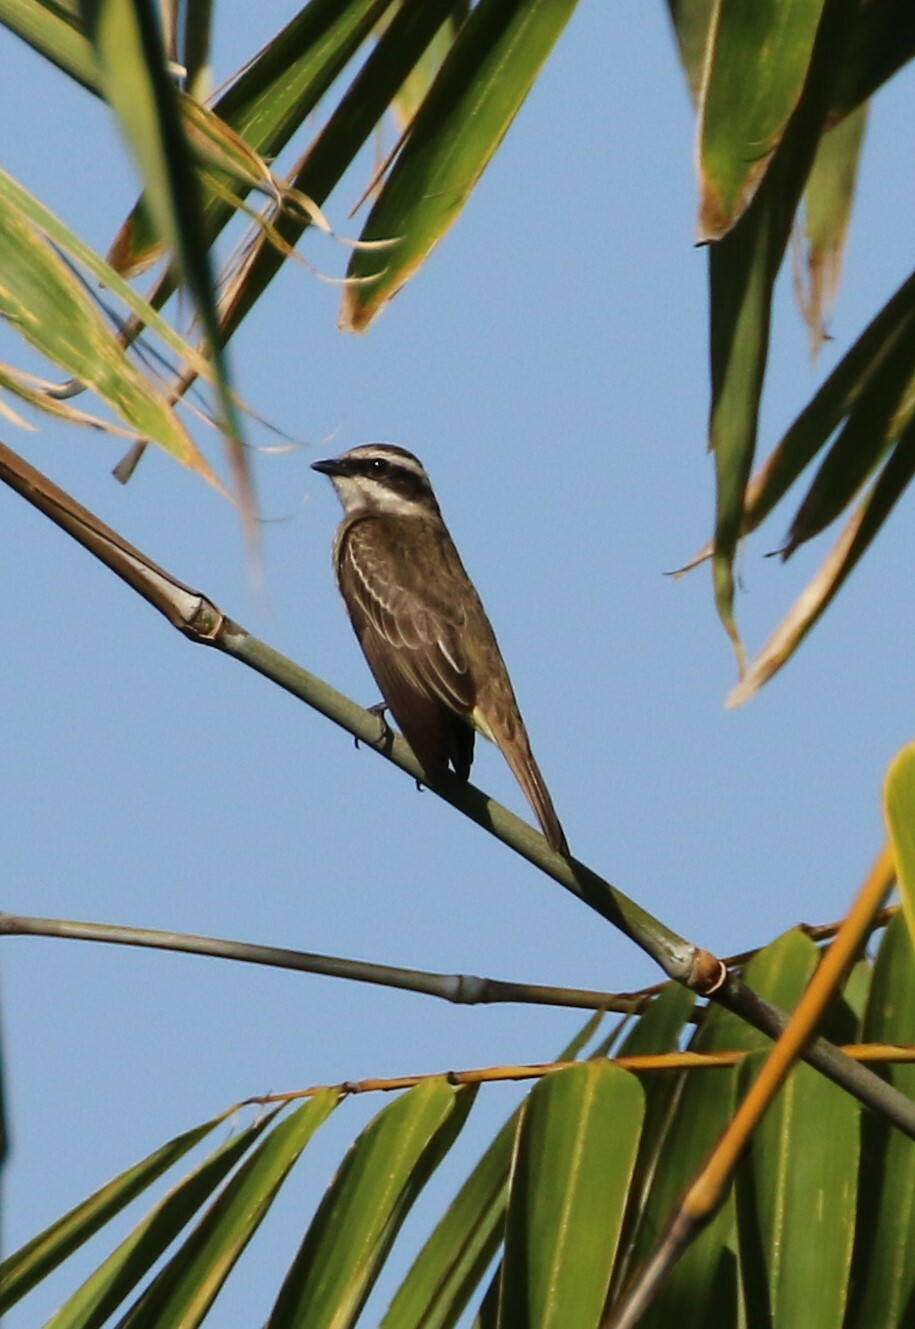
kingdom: Animalia
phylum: Chordata
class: Aves
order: Passeriformes
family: Tyrannidae
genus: Legatus
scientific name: Legatus leucophaius
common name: Piratic flycatcher
